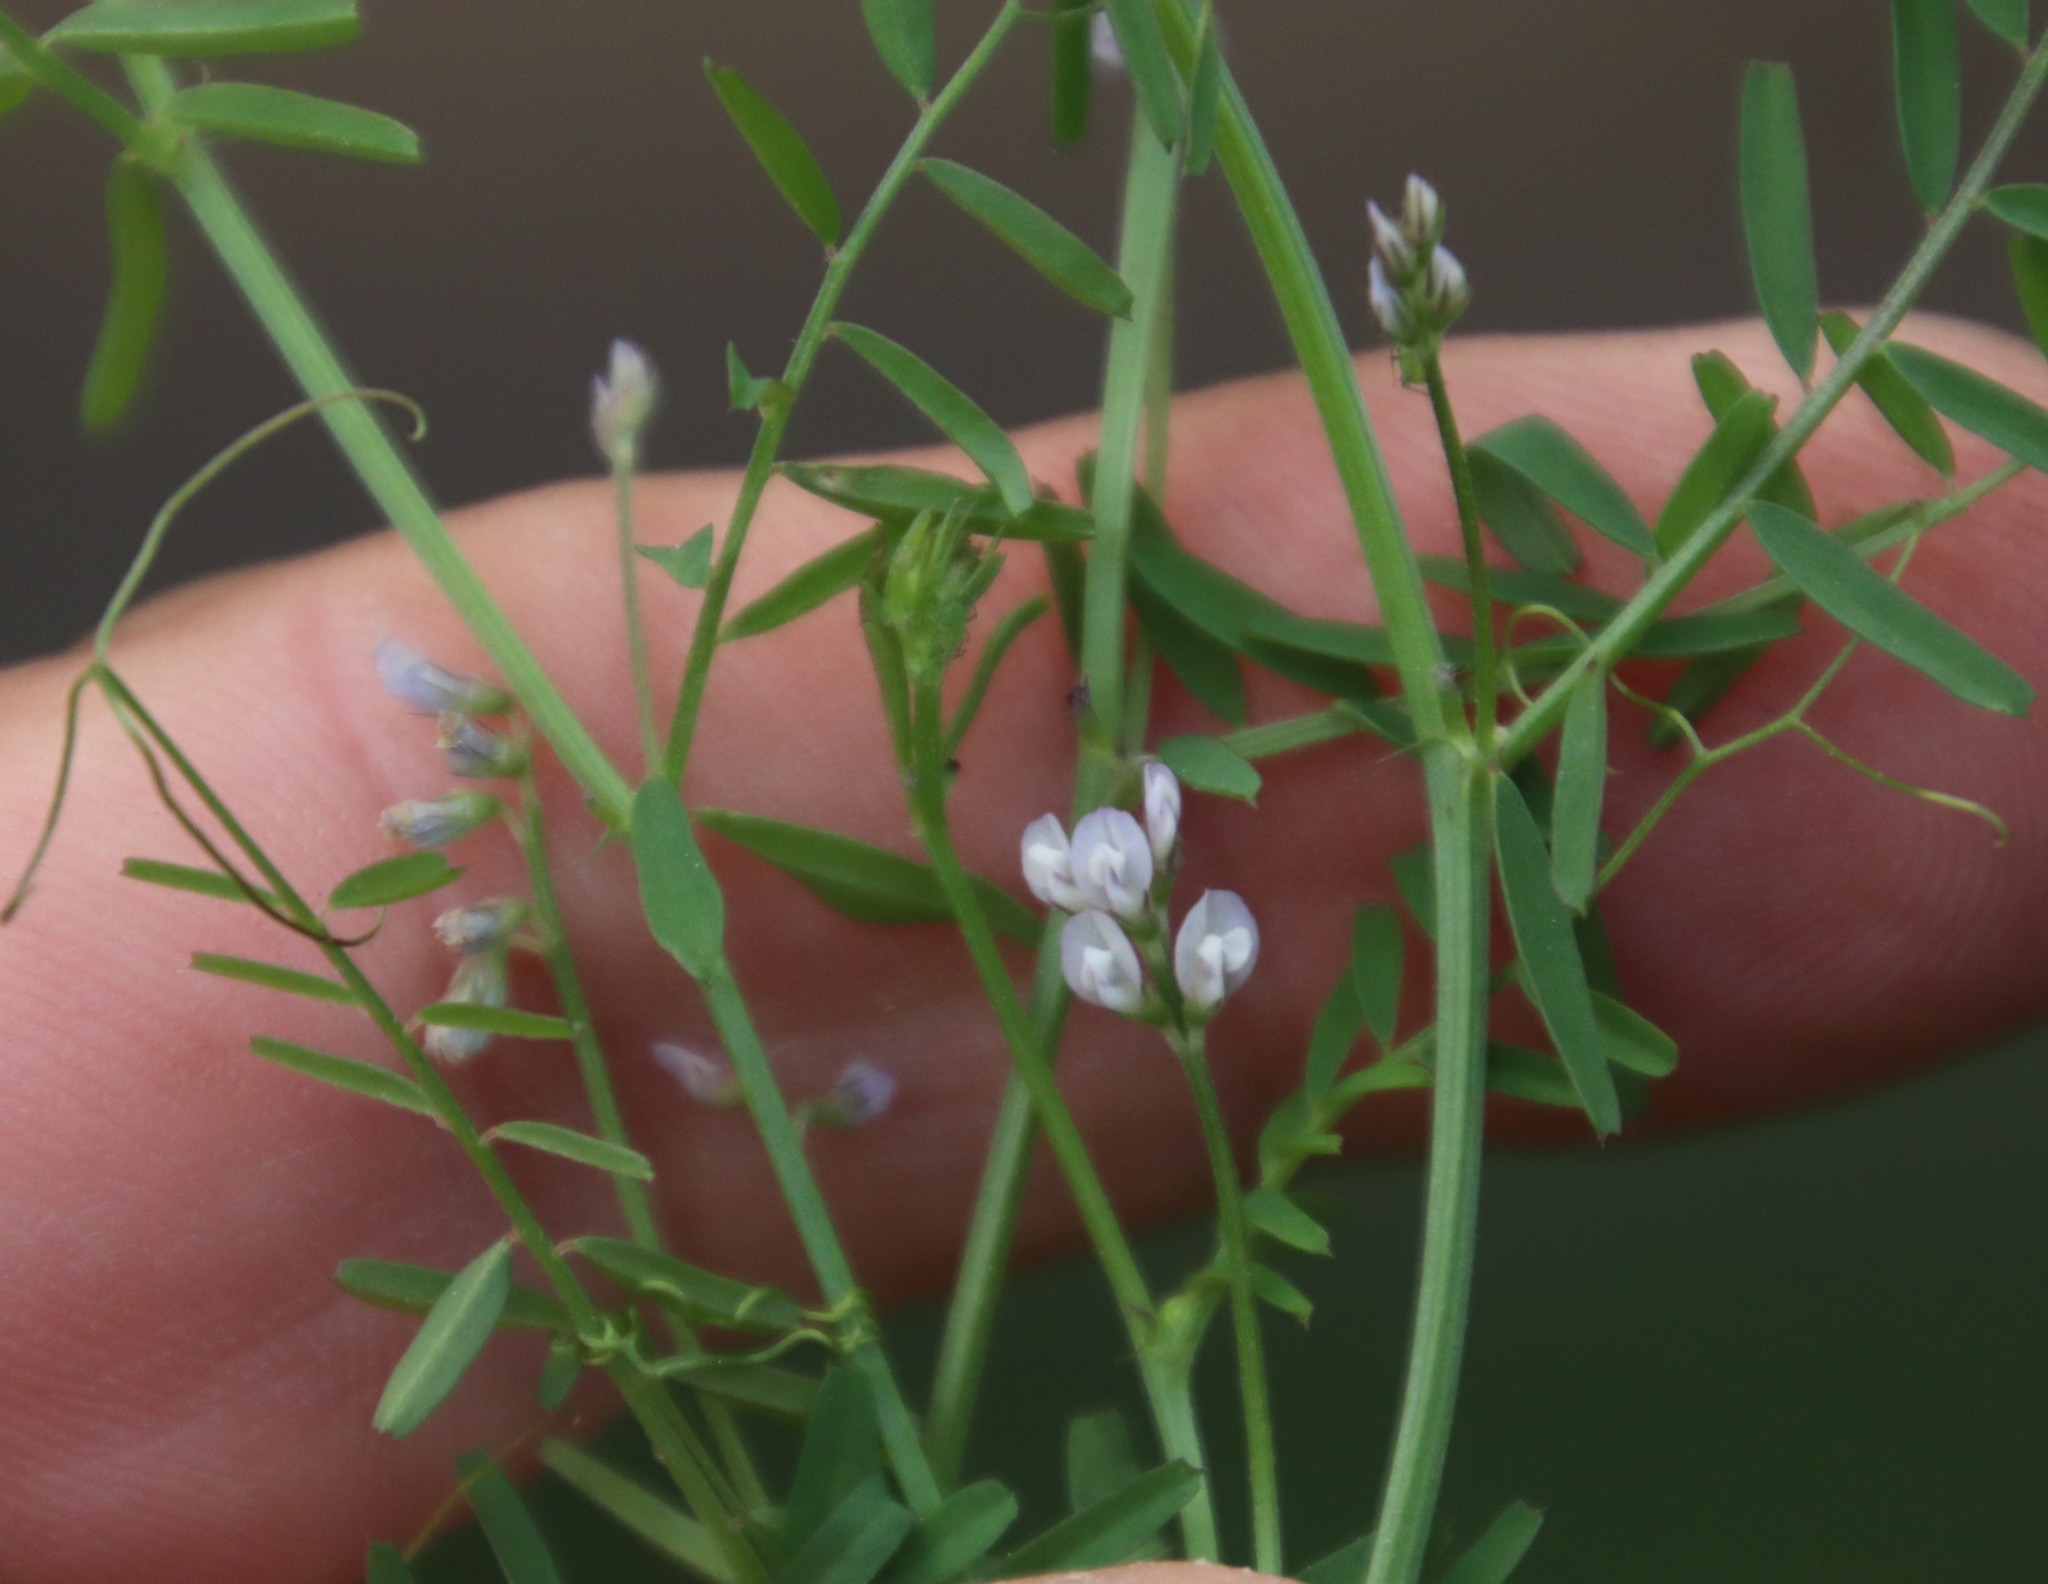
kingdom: Plantae
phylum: Tracheophyta
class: Magnoliopsida
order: Fabales
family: Fabaceae
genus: Vicia
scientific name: Vicia hirsuta
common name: Tiny vetch
